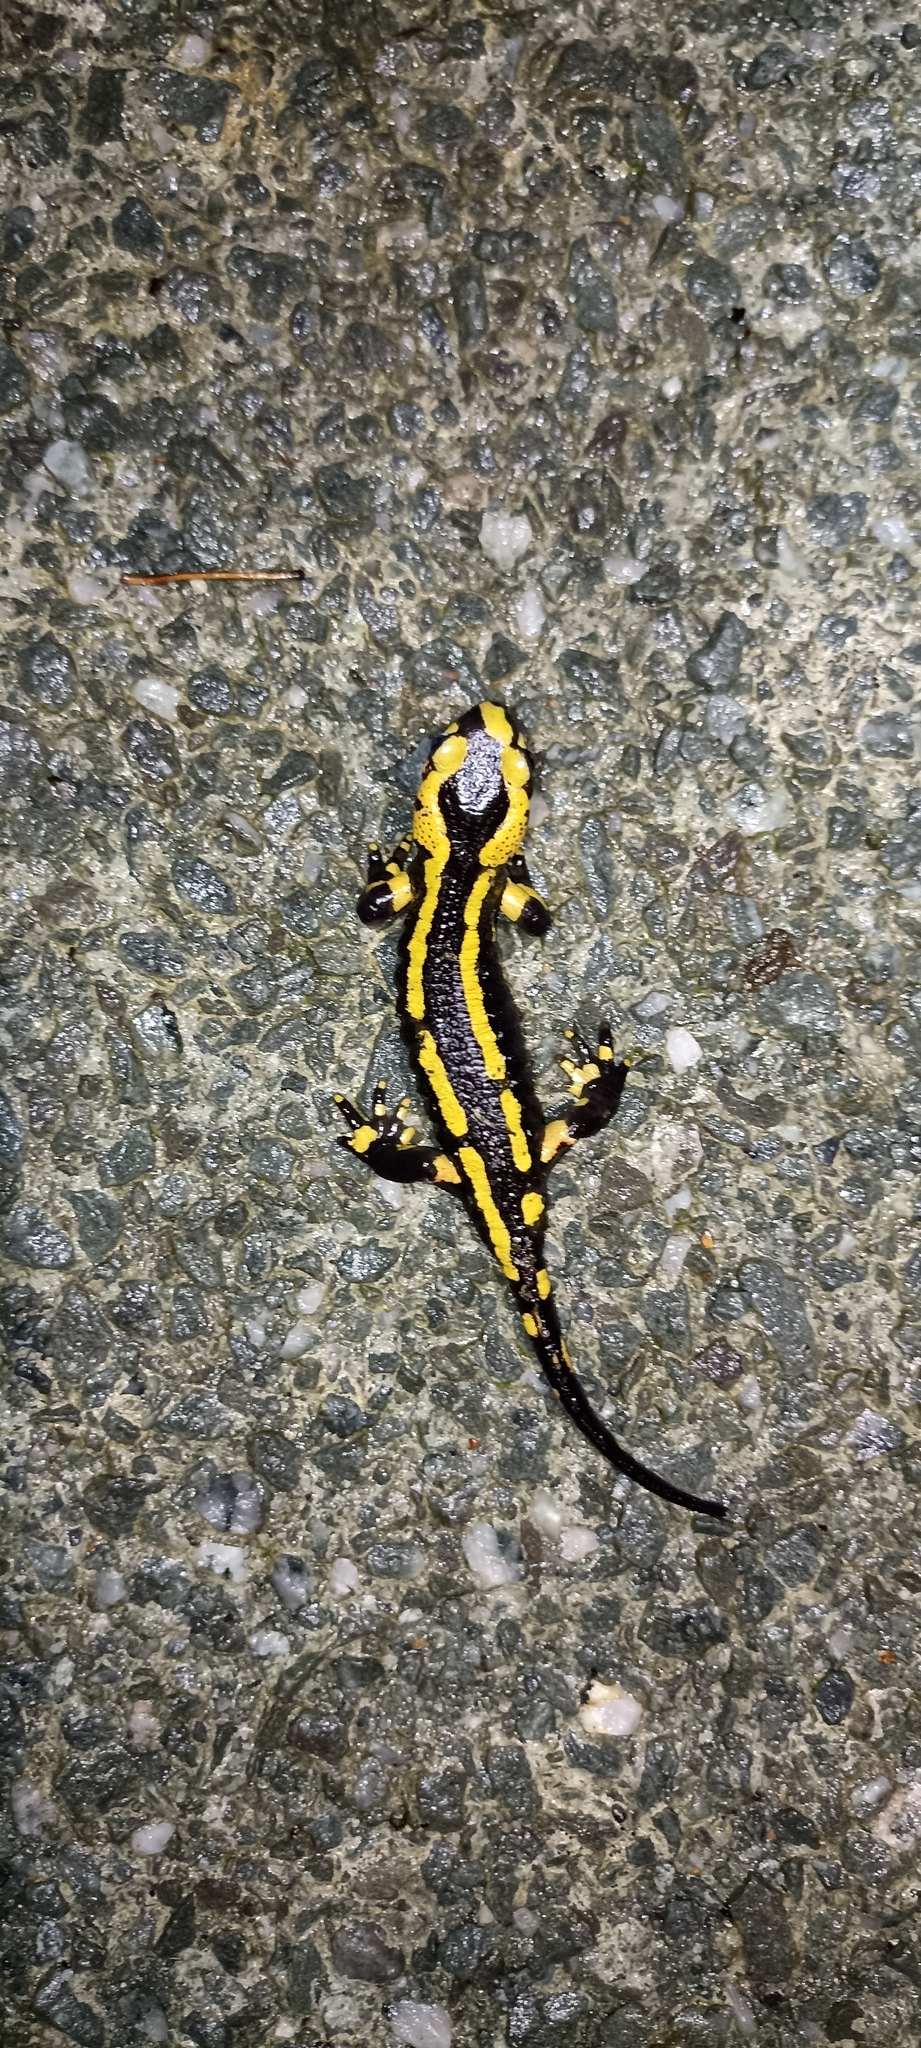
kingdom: Animalia
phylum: Chordata
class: Amphibia
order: Caudata
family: Salamandridae
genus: Salamandra
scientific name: Salamandra salamandra
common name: Fire salamander
